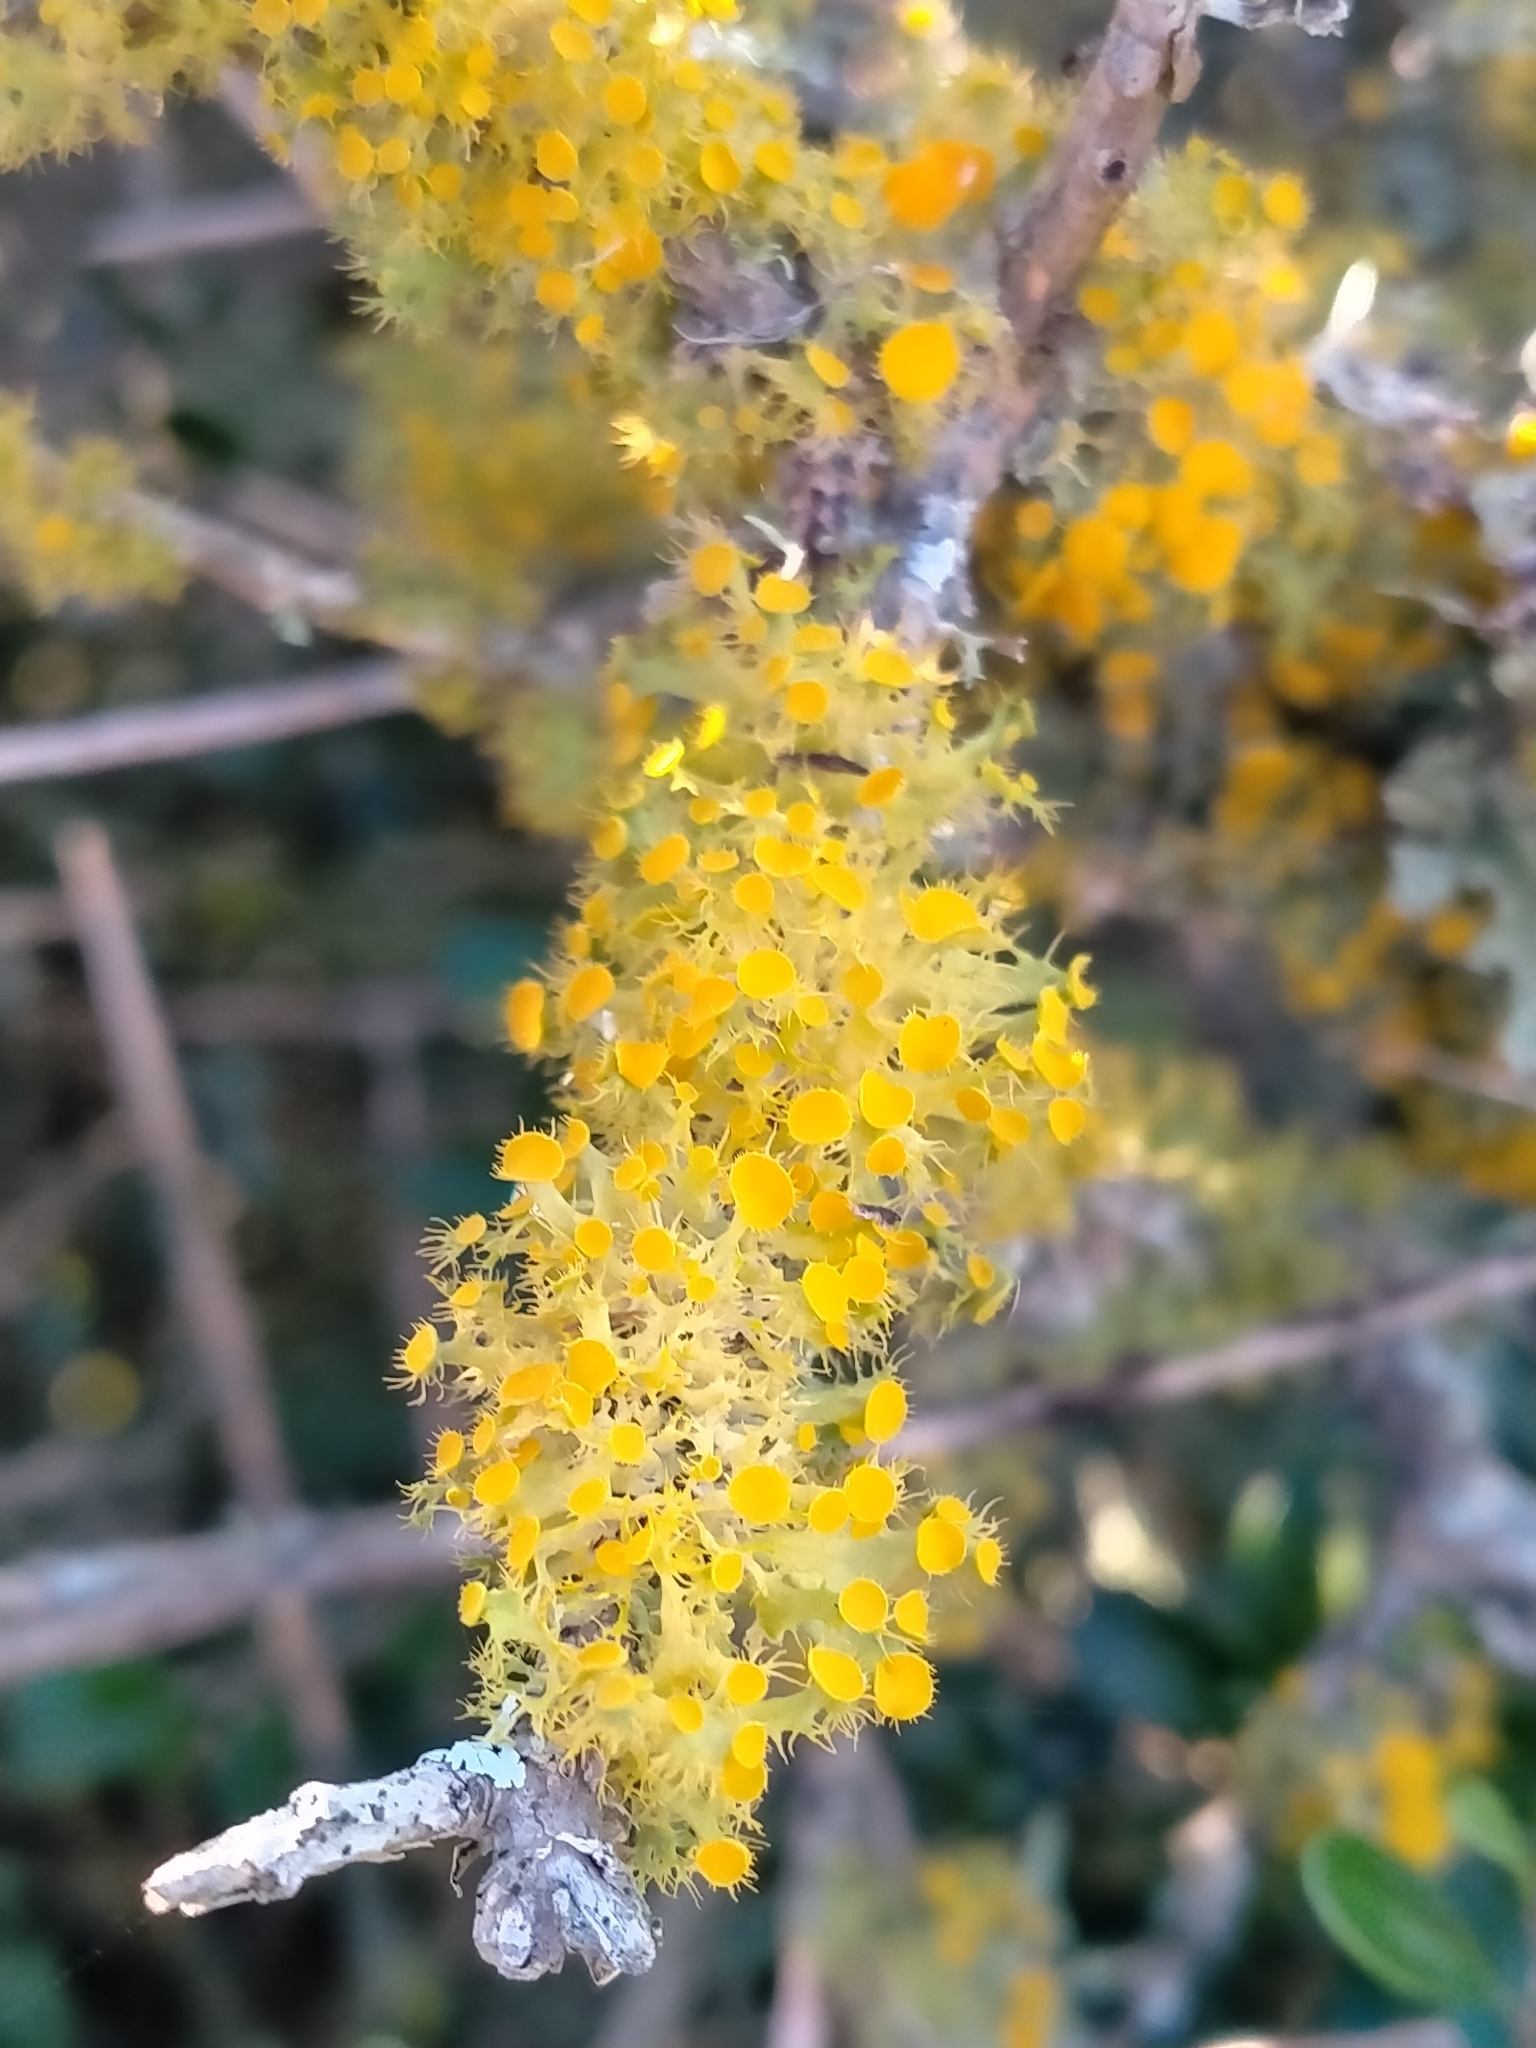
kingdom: Fungi
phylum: Ascomycota
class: Lecanoromycetes
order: Teloschistales
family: Teloschistaceae
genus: Niorma
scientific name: Niorma chrysophthalma
